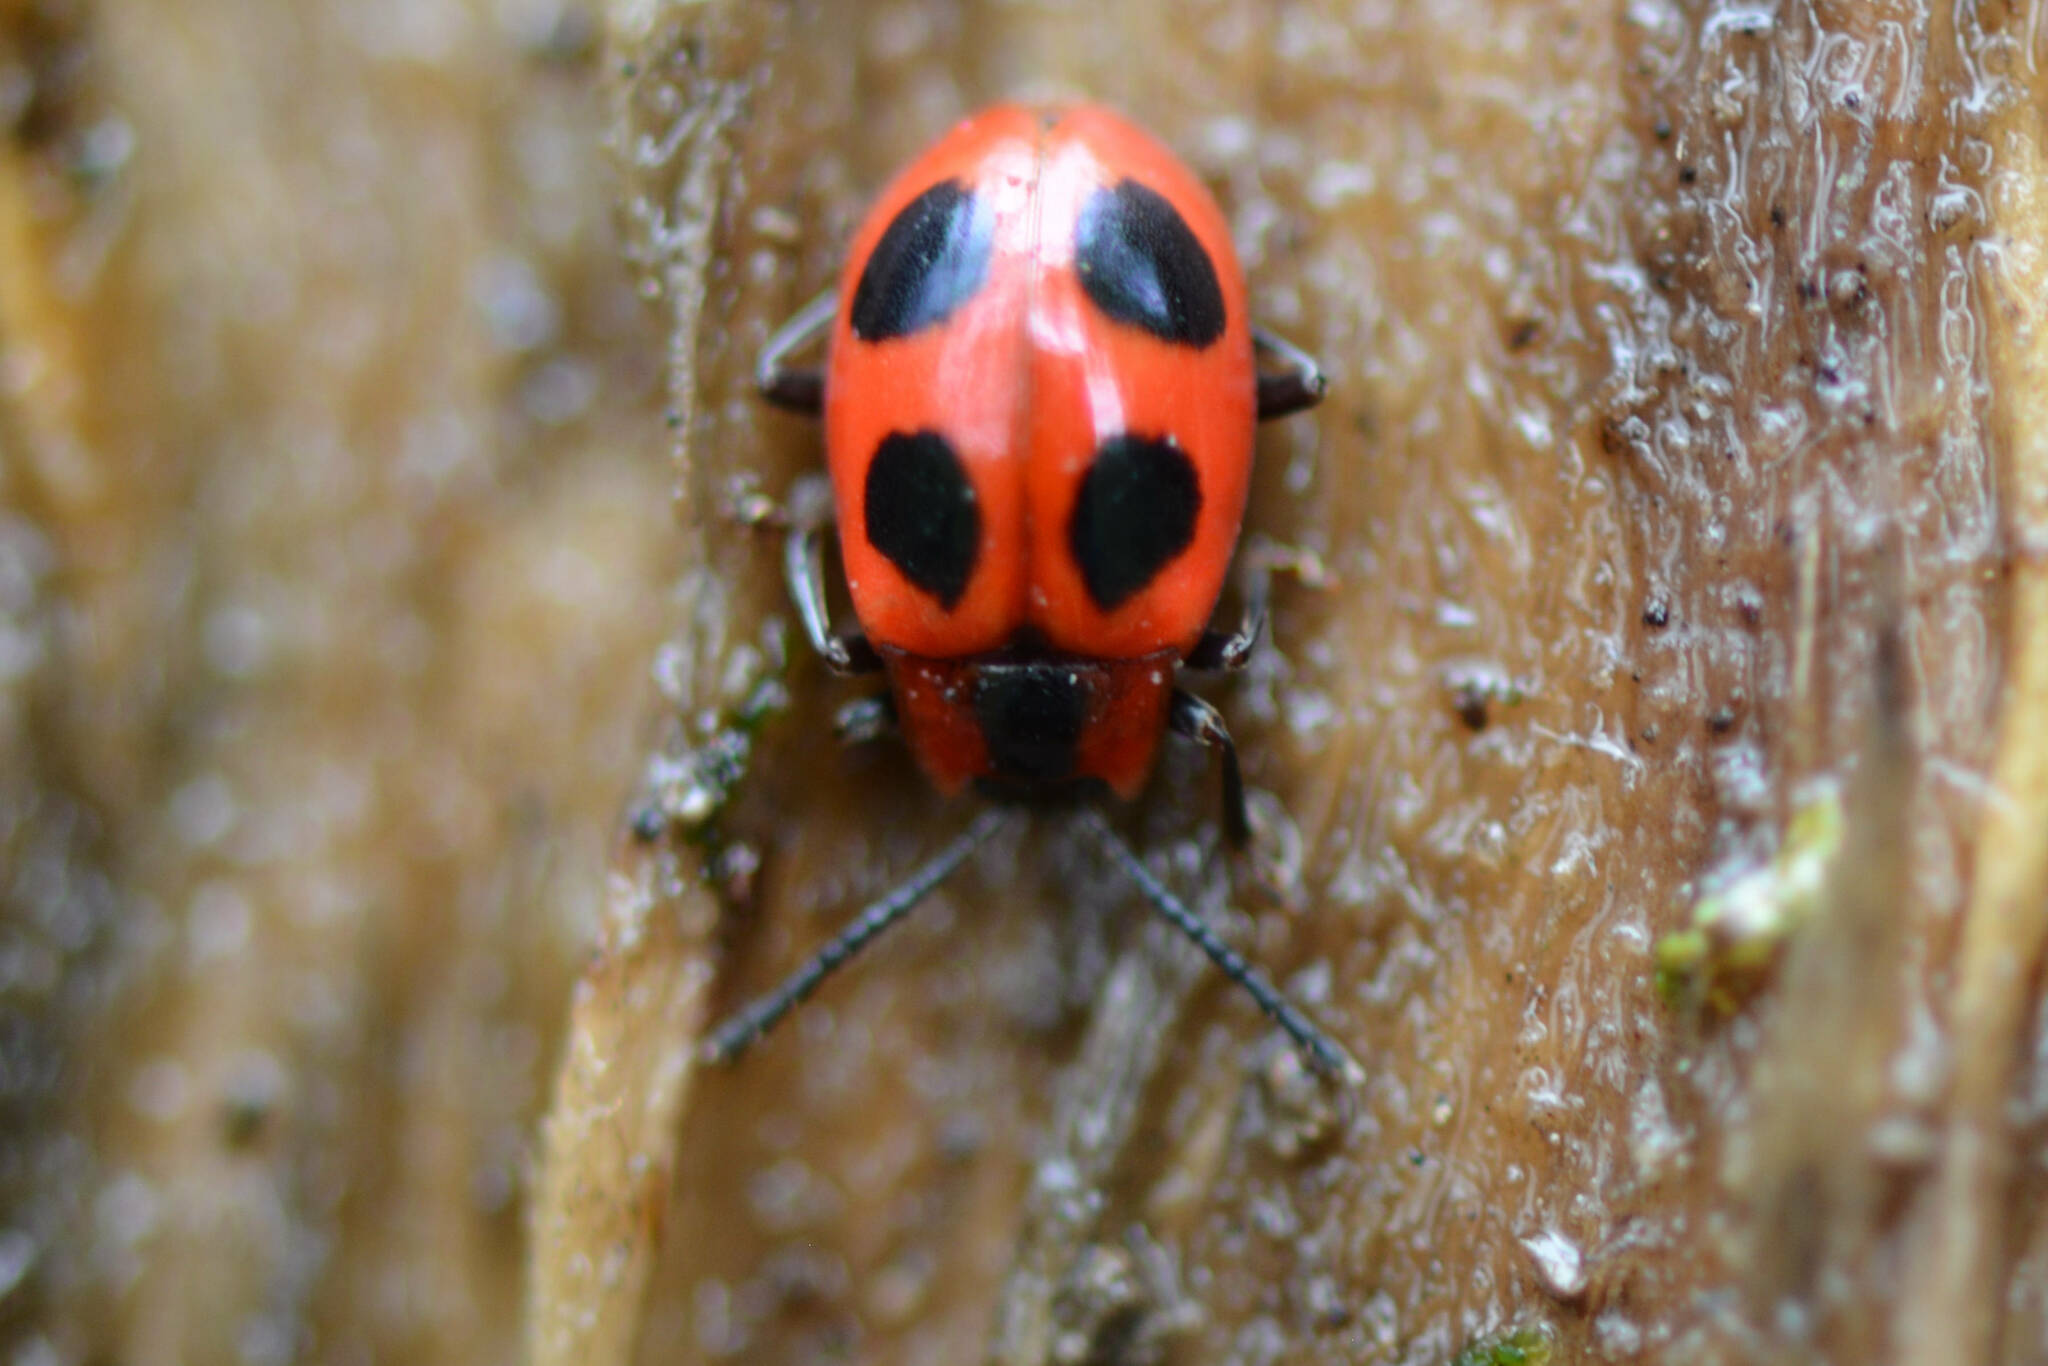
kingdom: Animalia
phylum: Arthropoda
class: Insecta
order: Coleoptera
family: Endomychidae
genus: Endomychus
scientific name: Endomychus coccineus
